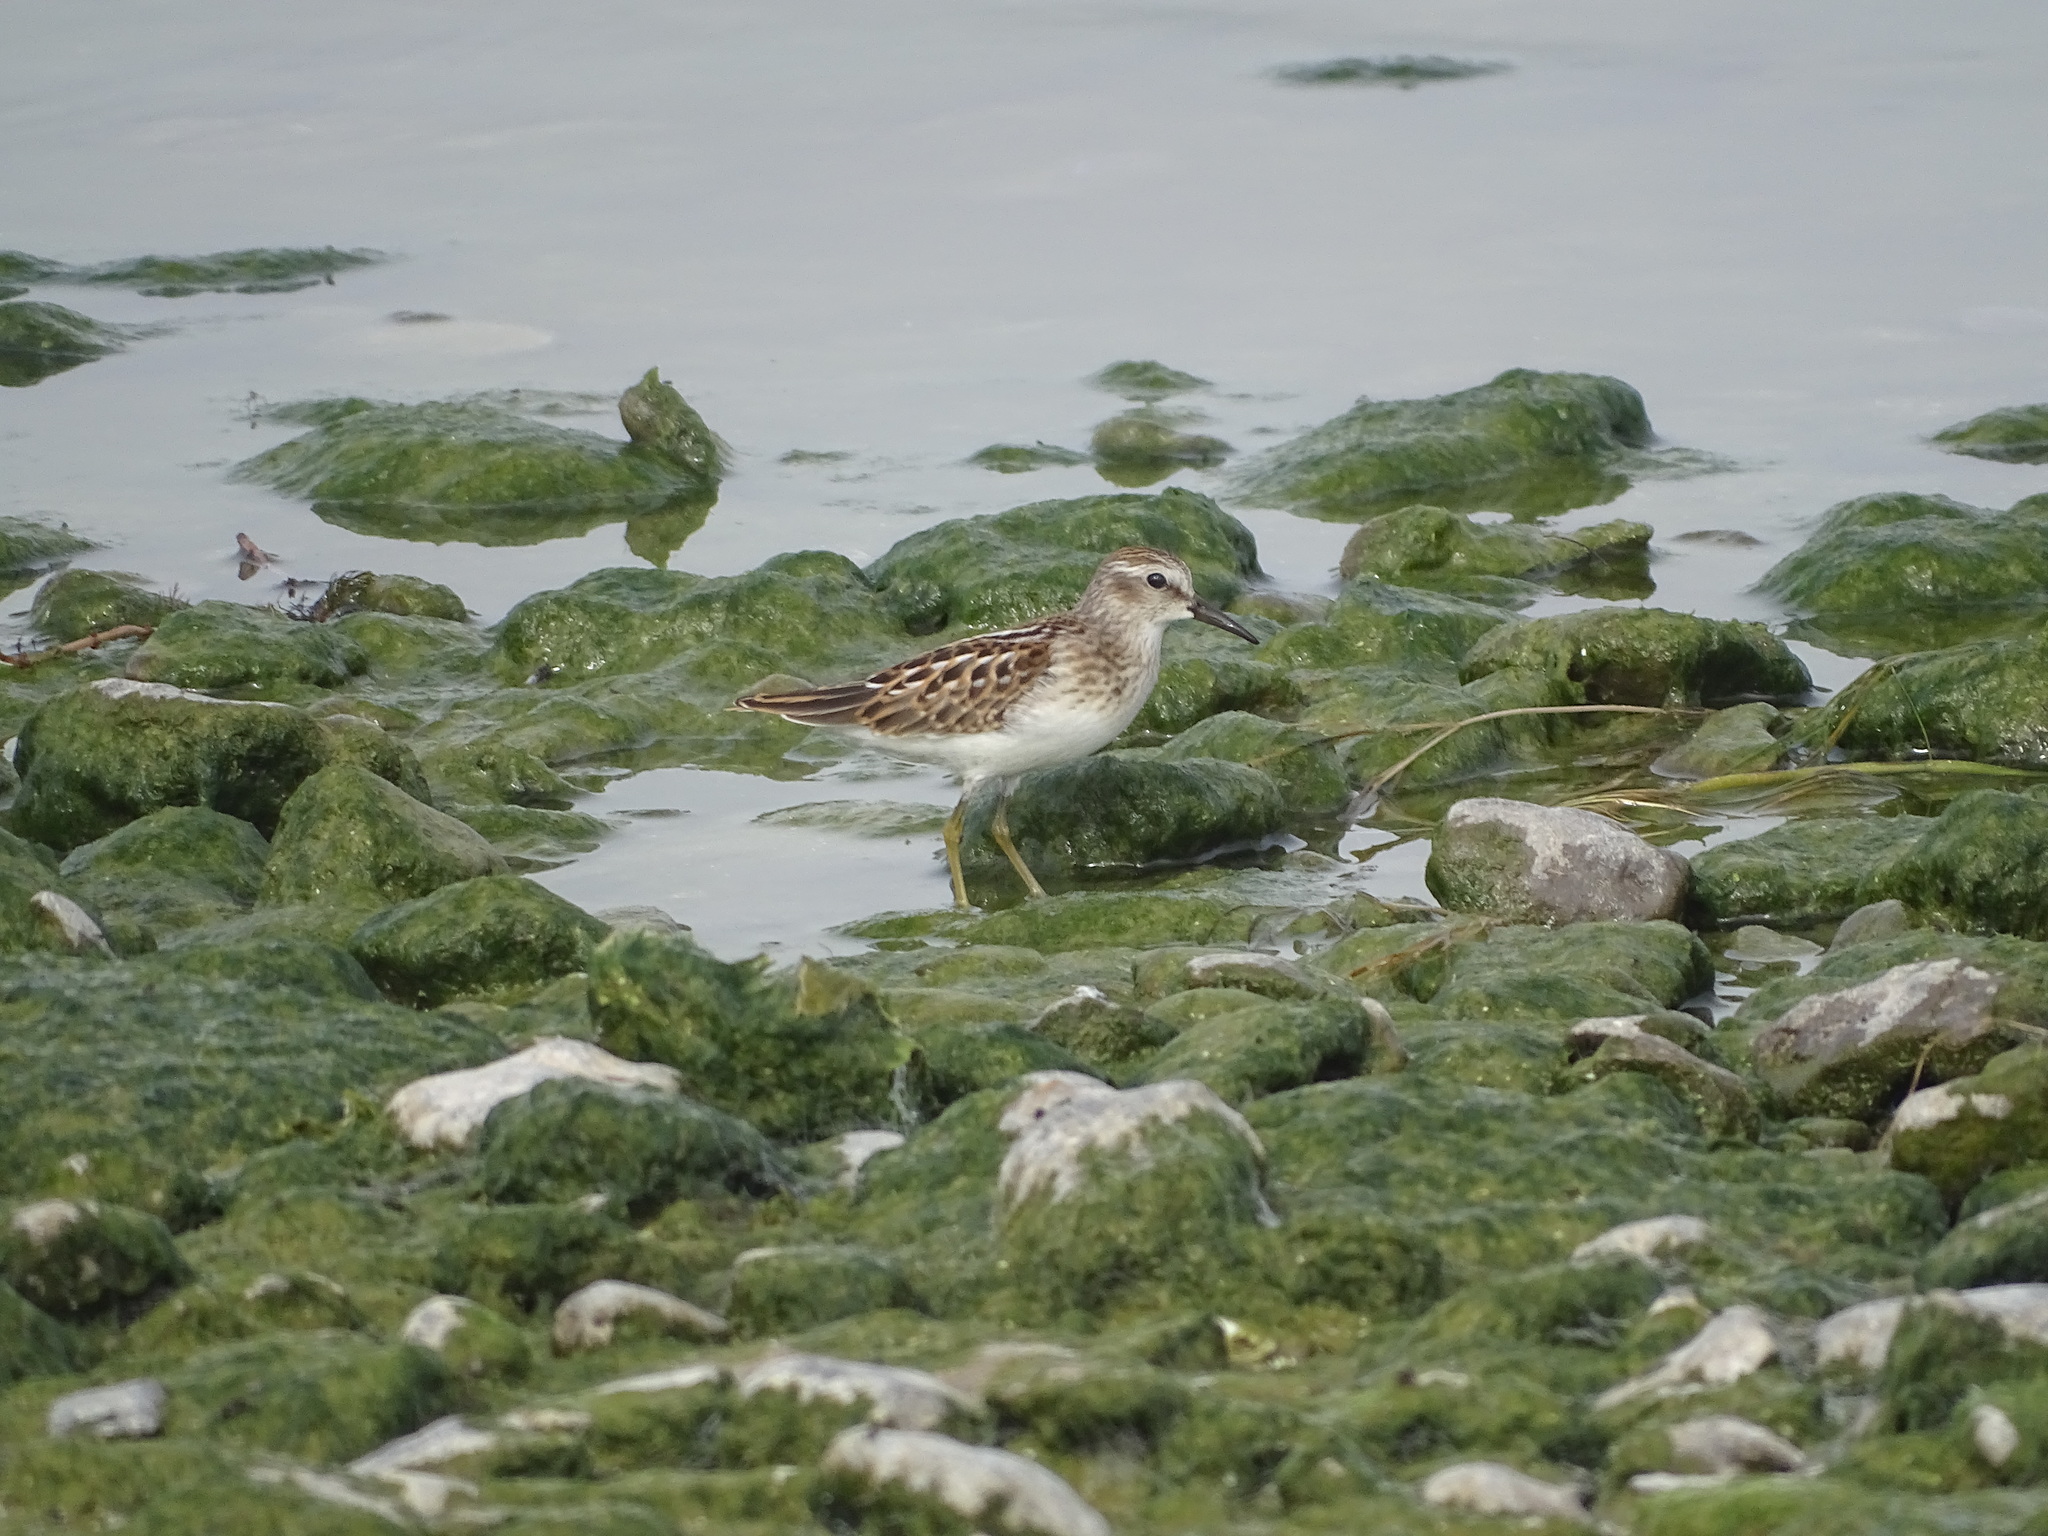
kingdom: Animalia
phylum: Chordata
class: Aves
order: Charadriiformes
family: Scolopacidae
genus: Calidris
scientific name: Calidris minutilla
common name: Least sandpiper
